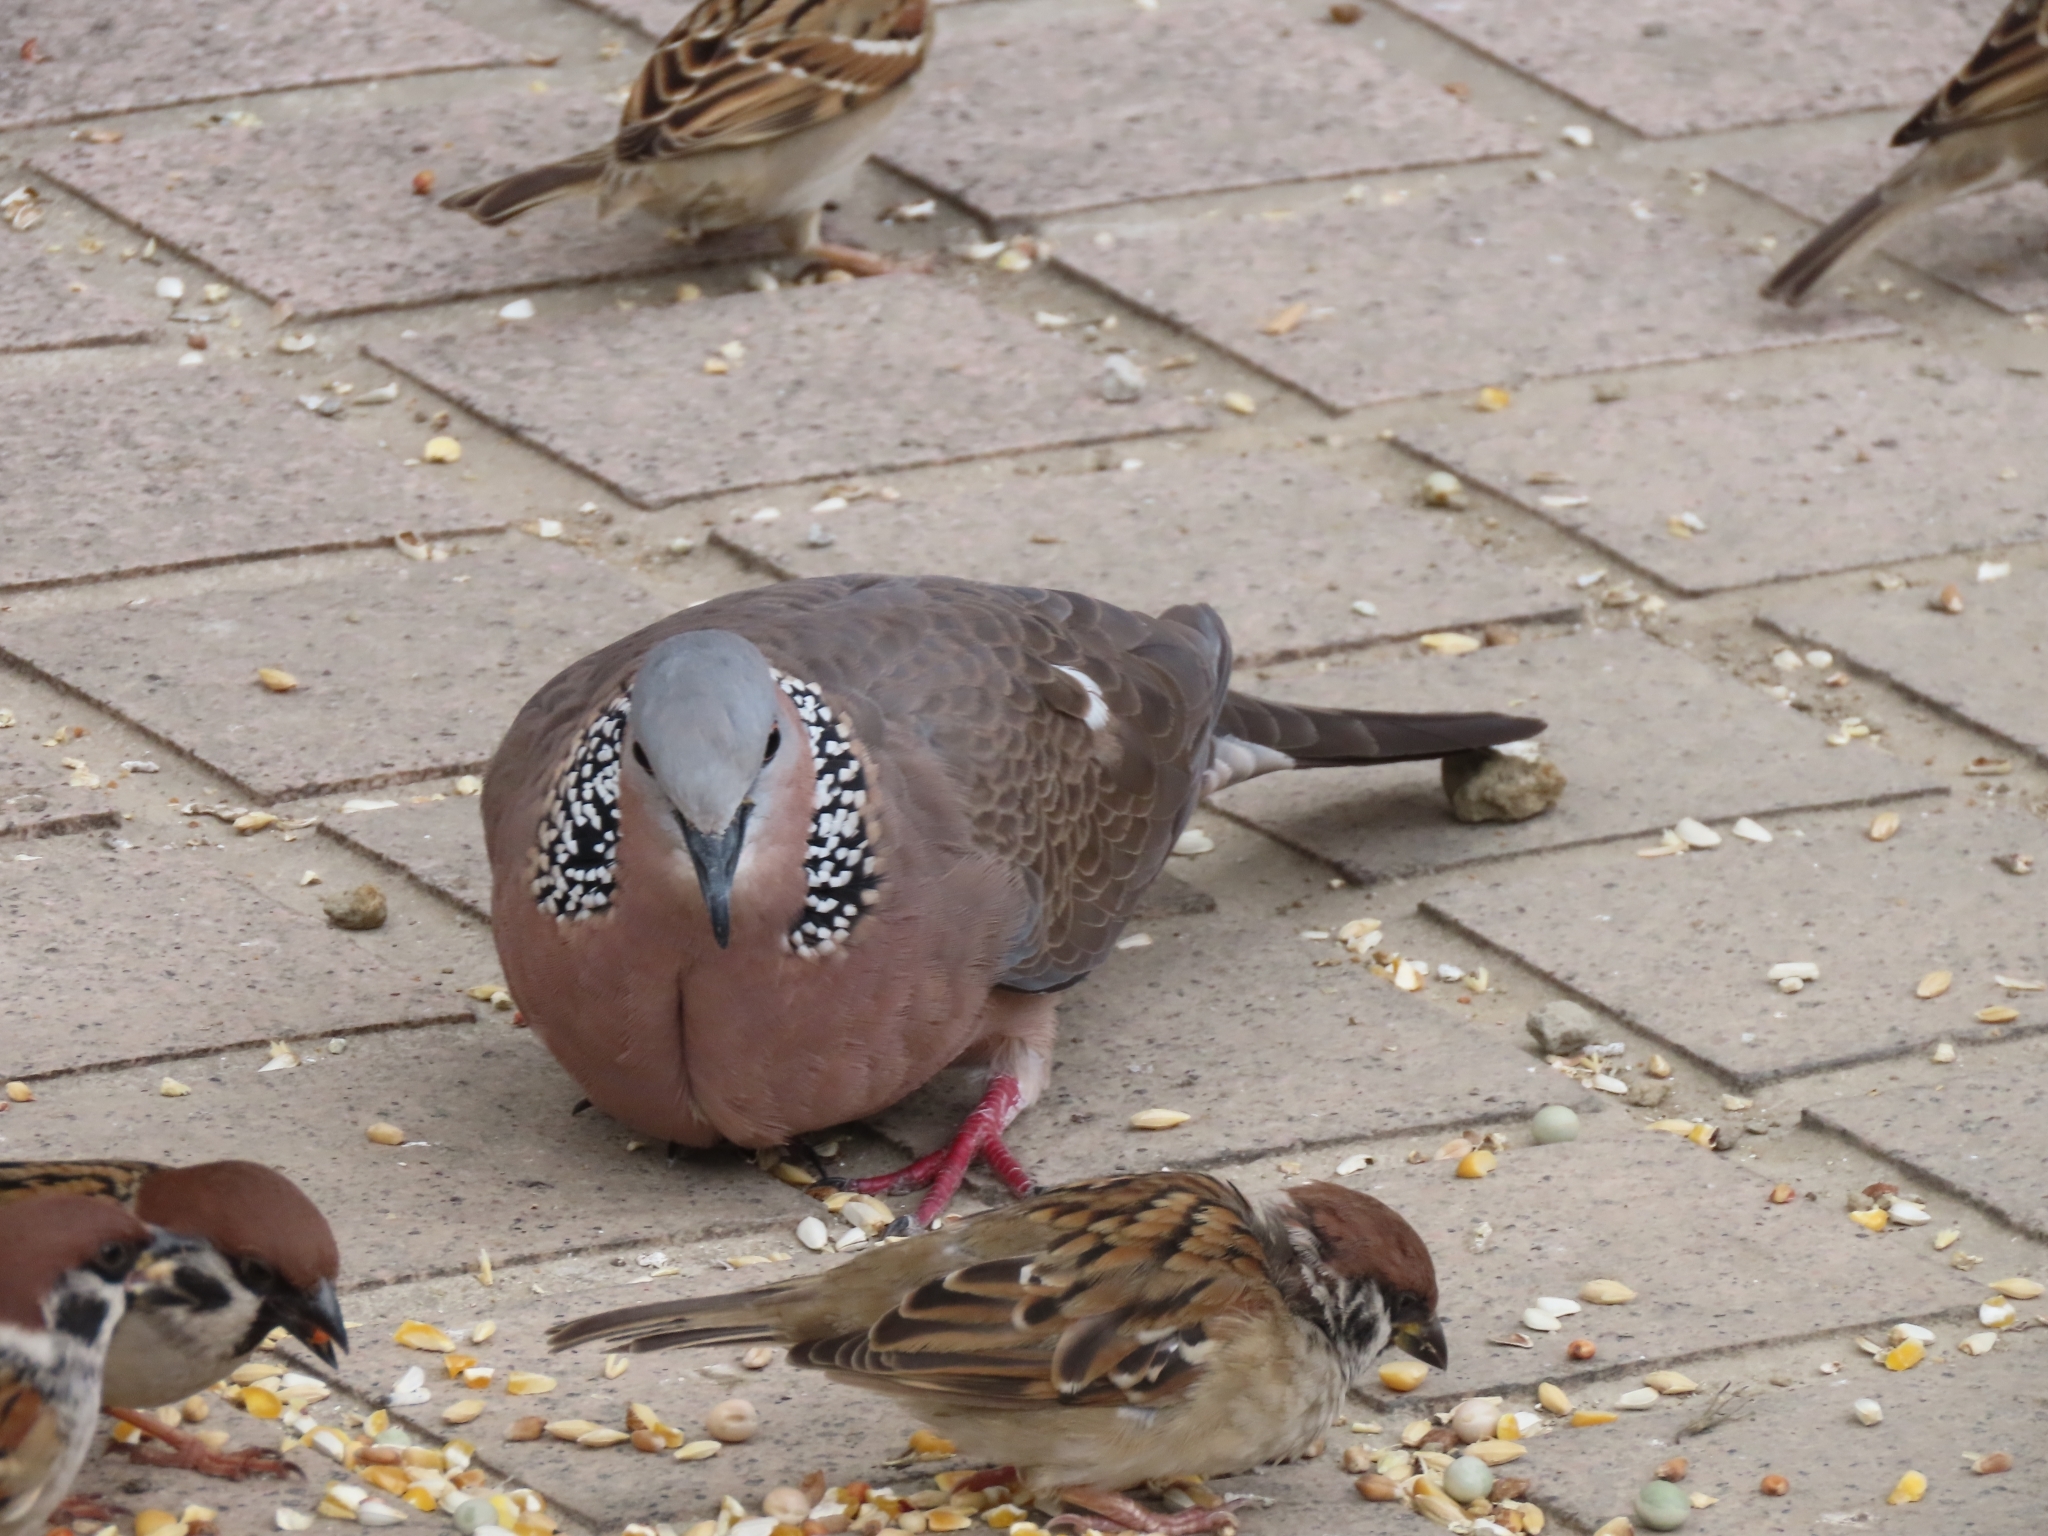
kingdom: Animalia
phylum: Chordata
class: Aves
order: Columbiformes
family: Columbidae
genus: Spilopelia
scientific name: Spilopelia chinensis
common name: Spotted dove
